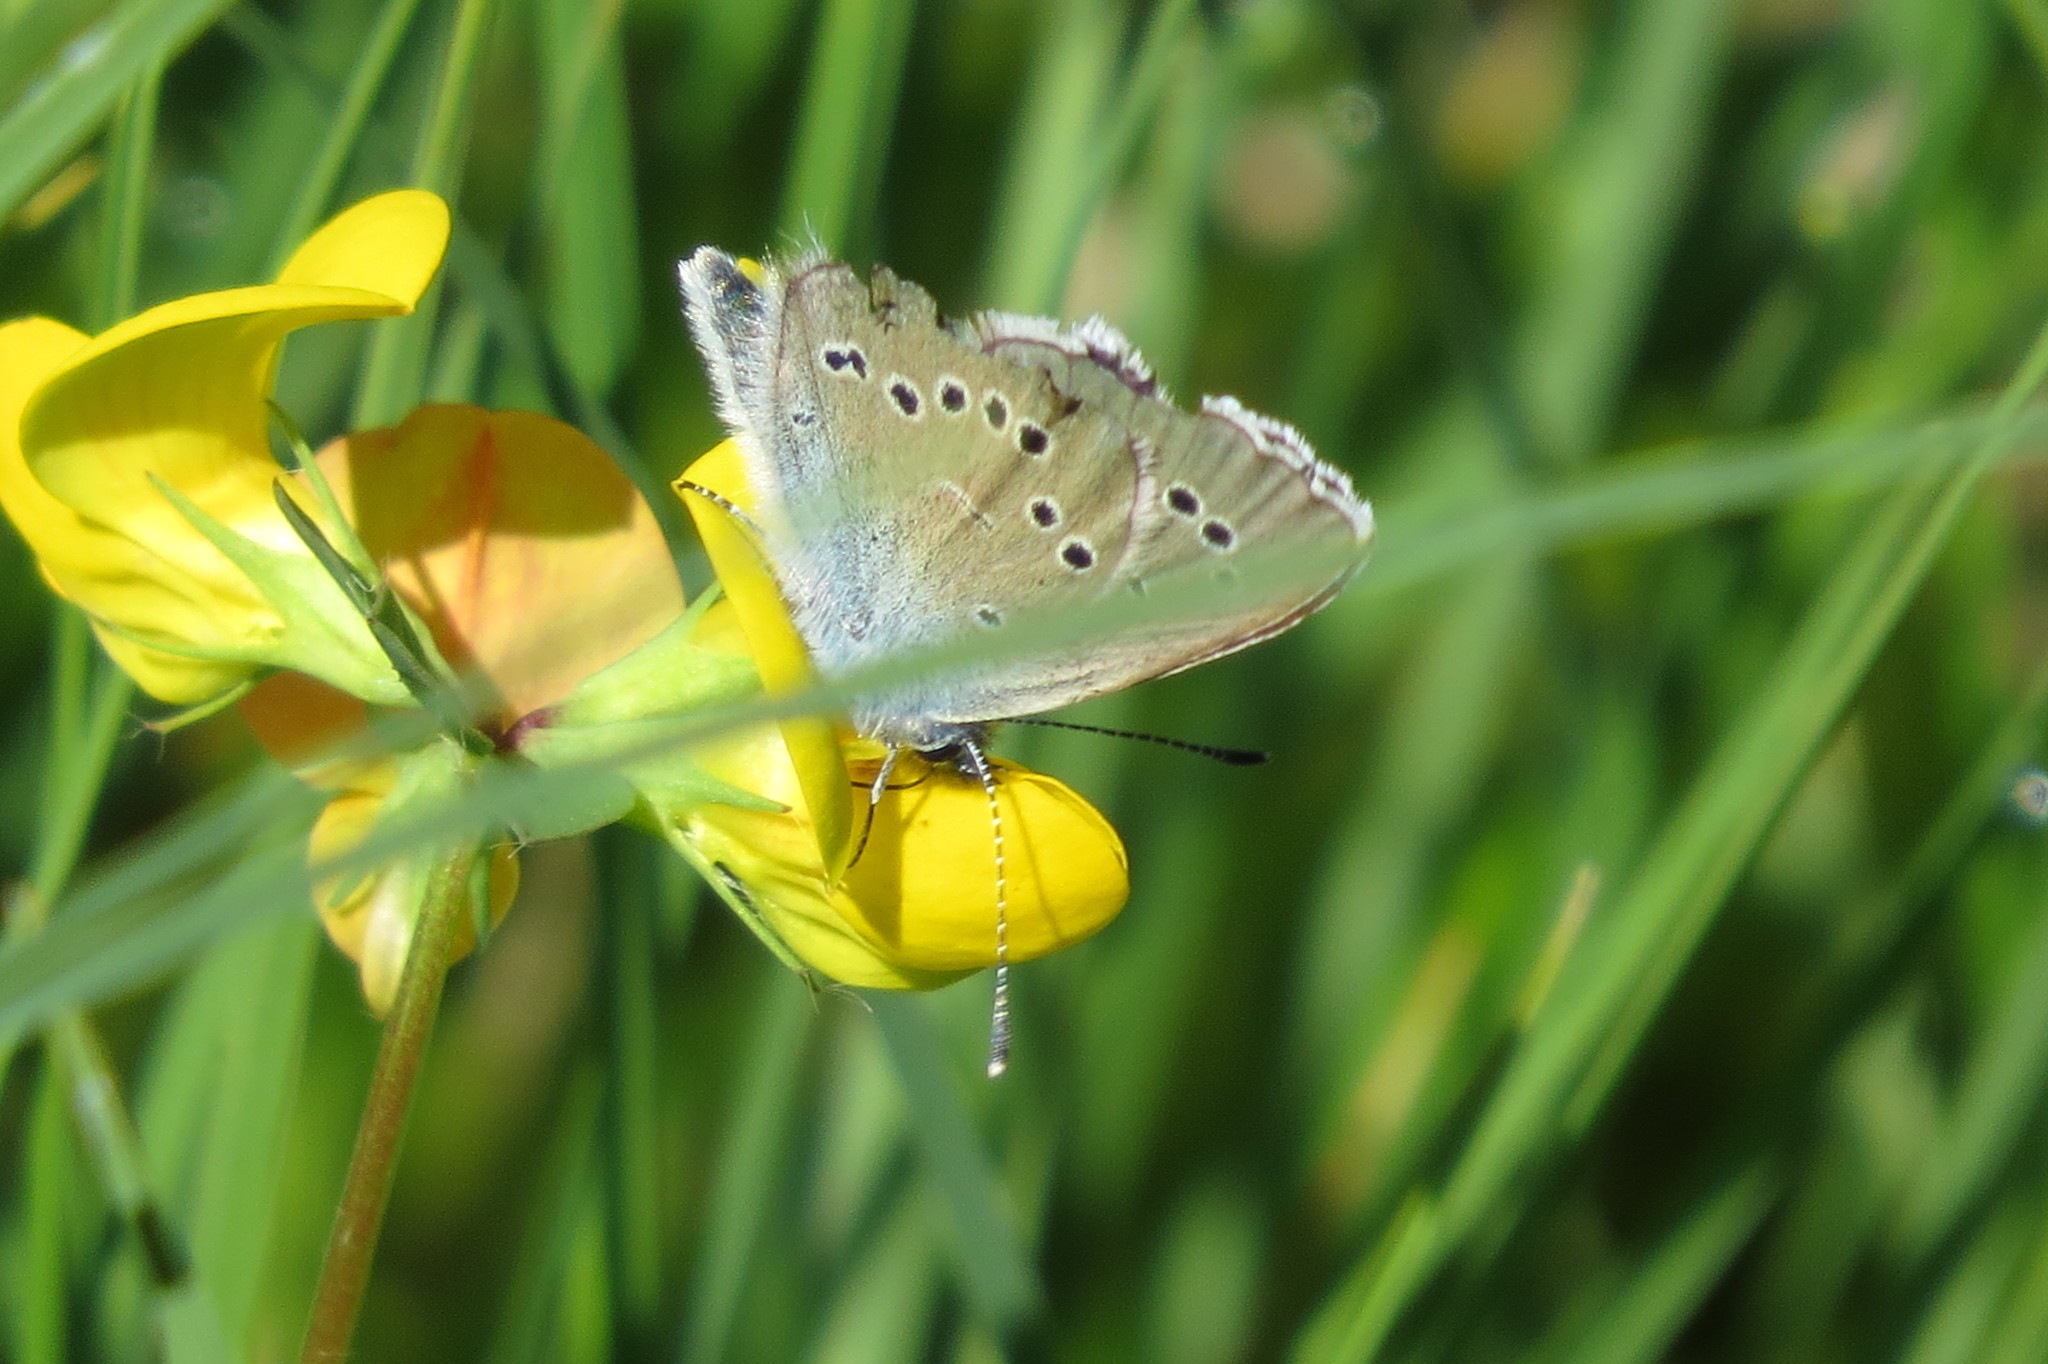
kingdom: Animalia
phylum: Arthropoda
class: Insecta
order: Lepidoptera
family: Lycaenidae
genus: Cyaniris
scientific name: Cyaniris semiargus
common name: Mazarine blue
